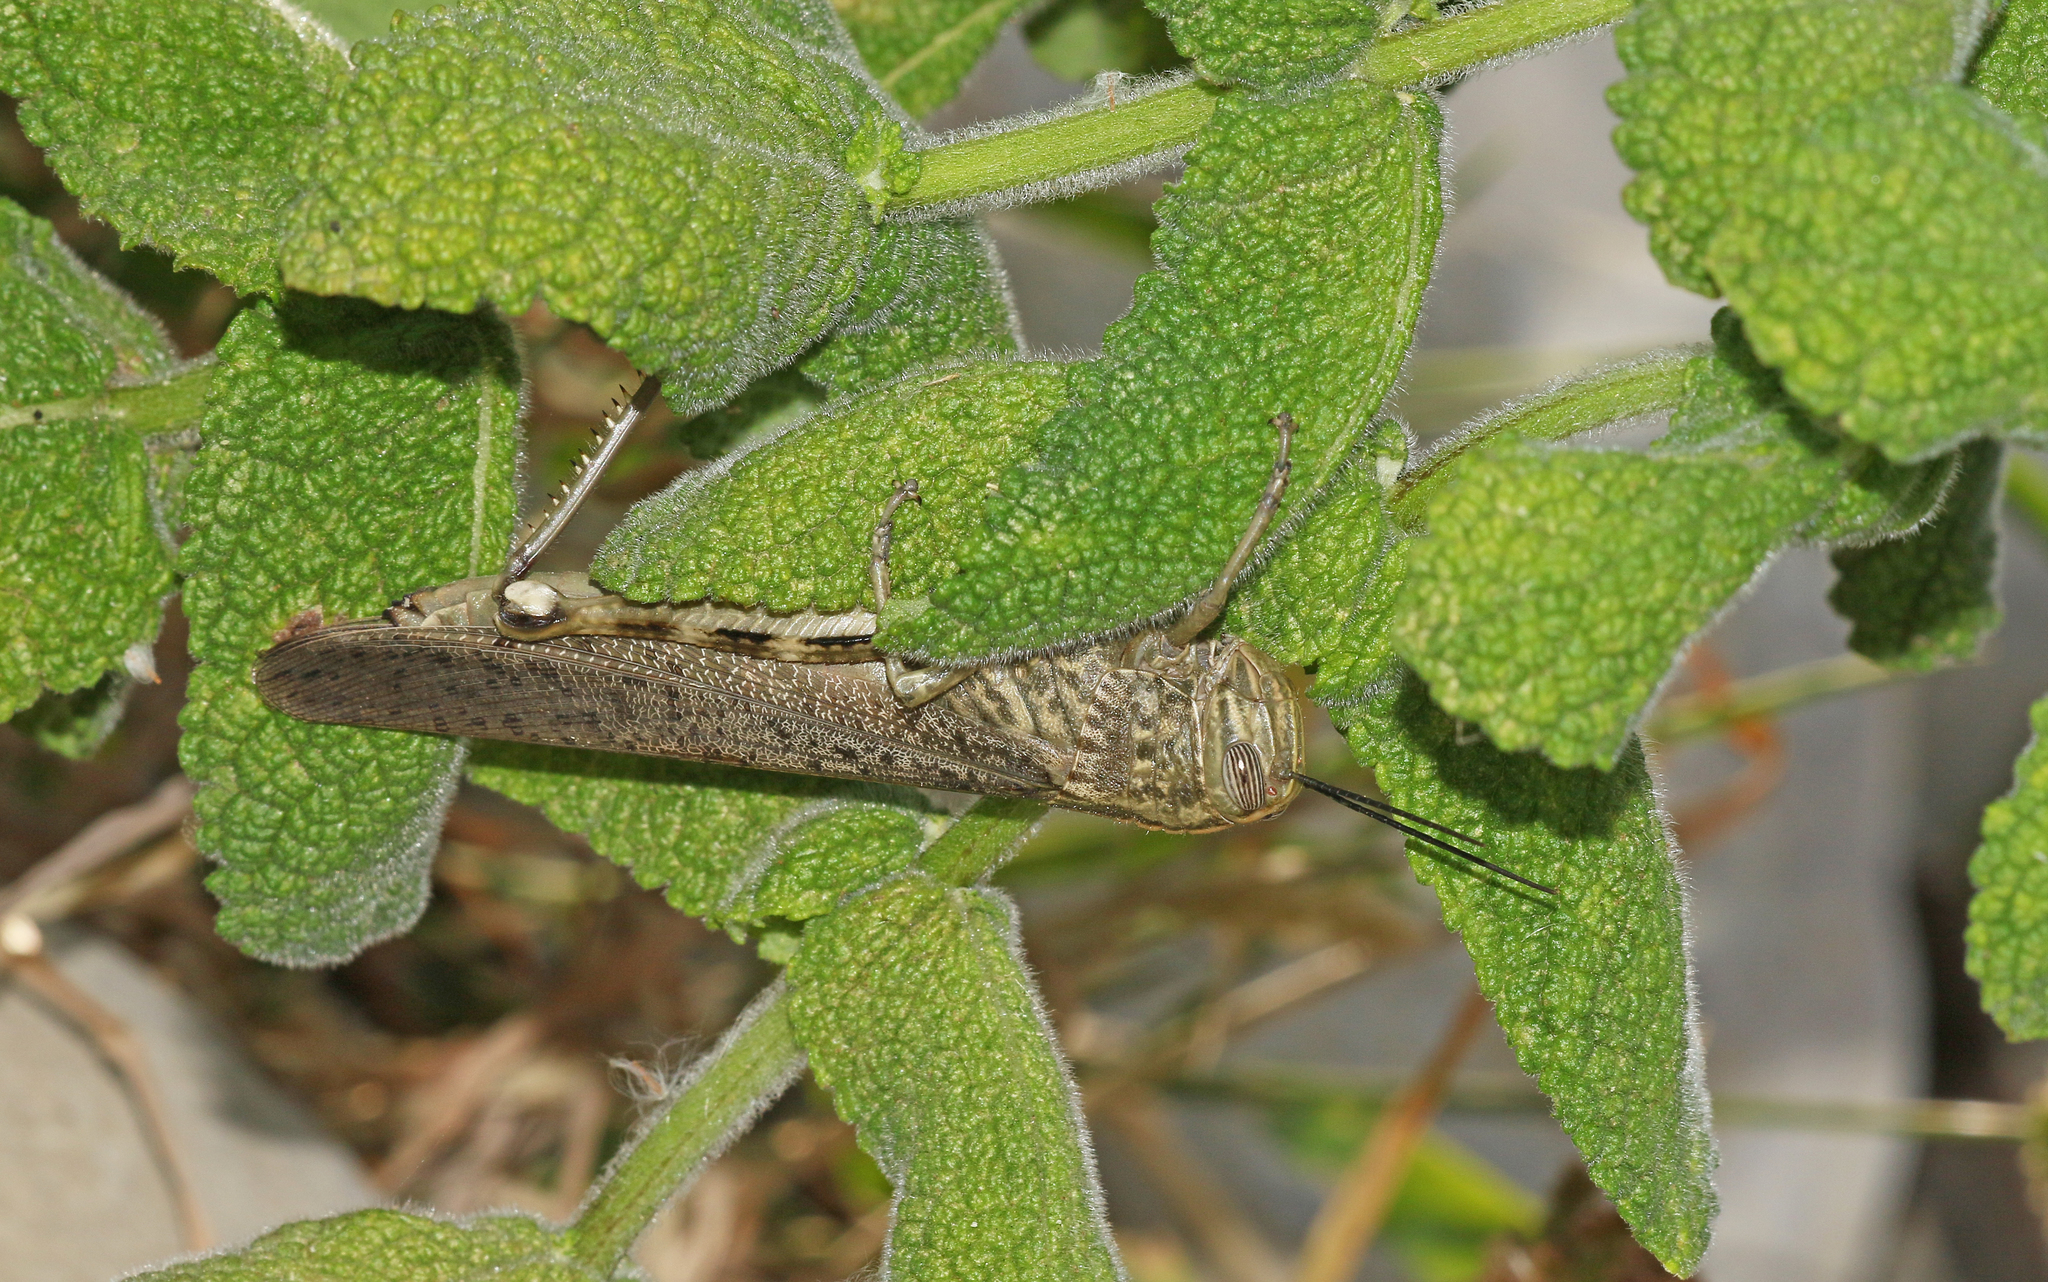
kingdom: Animalia
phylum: Arthropoda
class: Insecta
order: Orthoptera
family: Acrididae
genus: Anacridium
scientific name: Anacridium aegyptium
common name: Egyptian grasshopper
